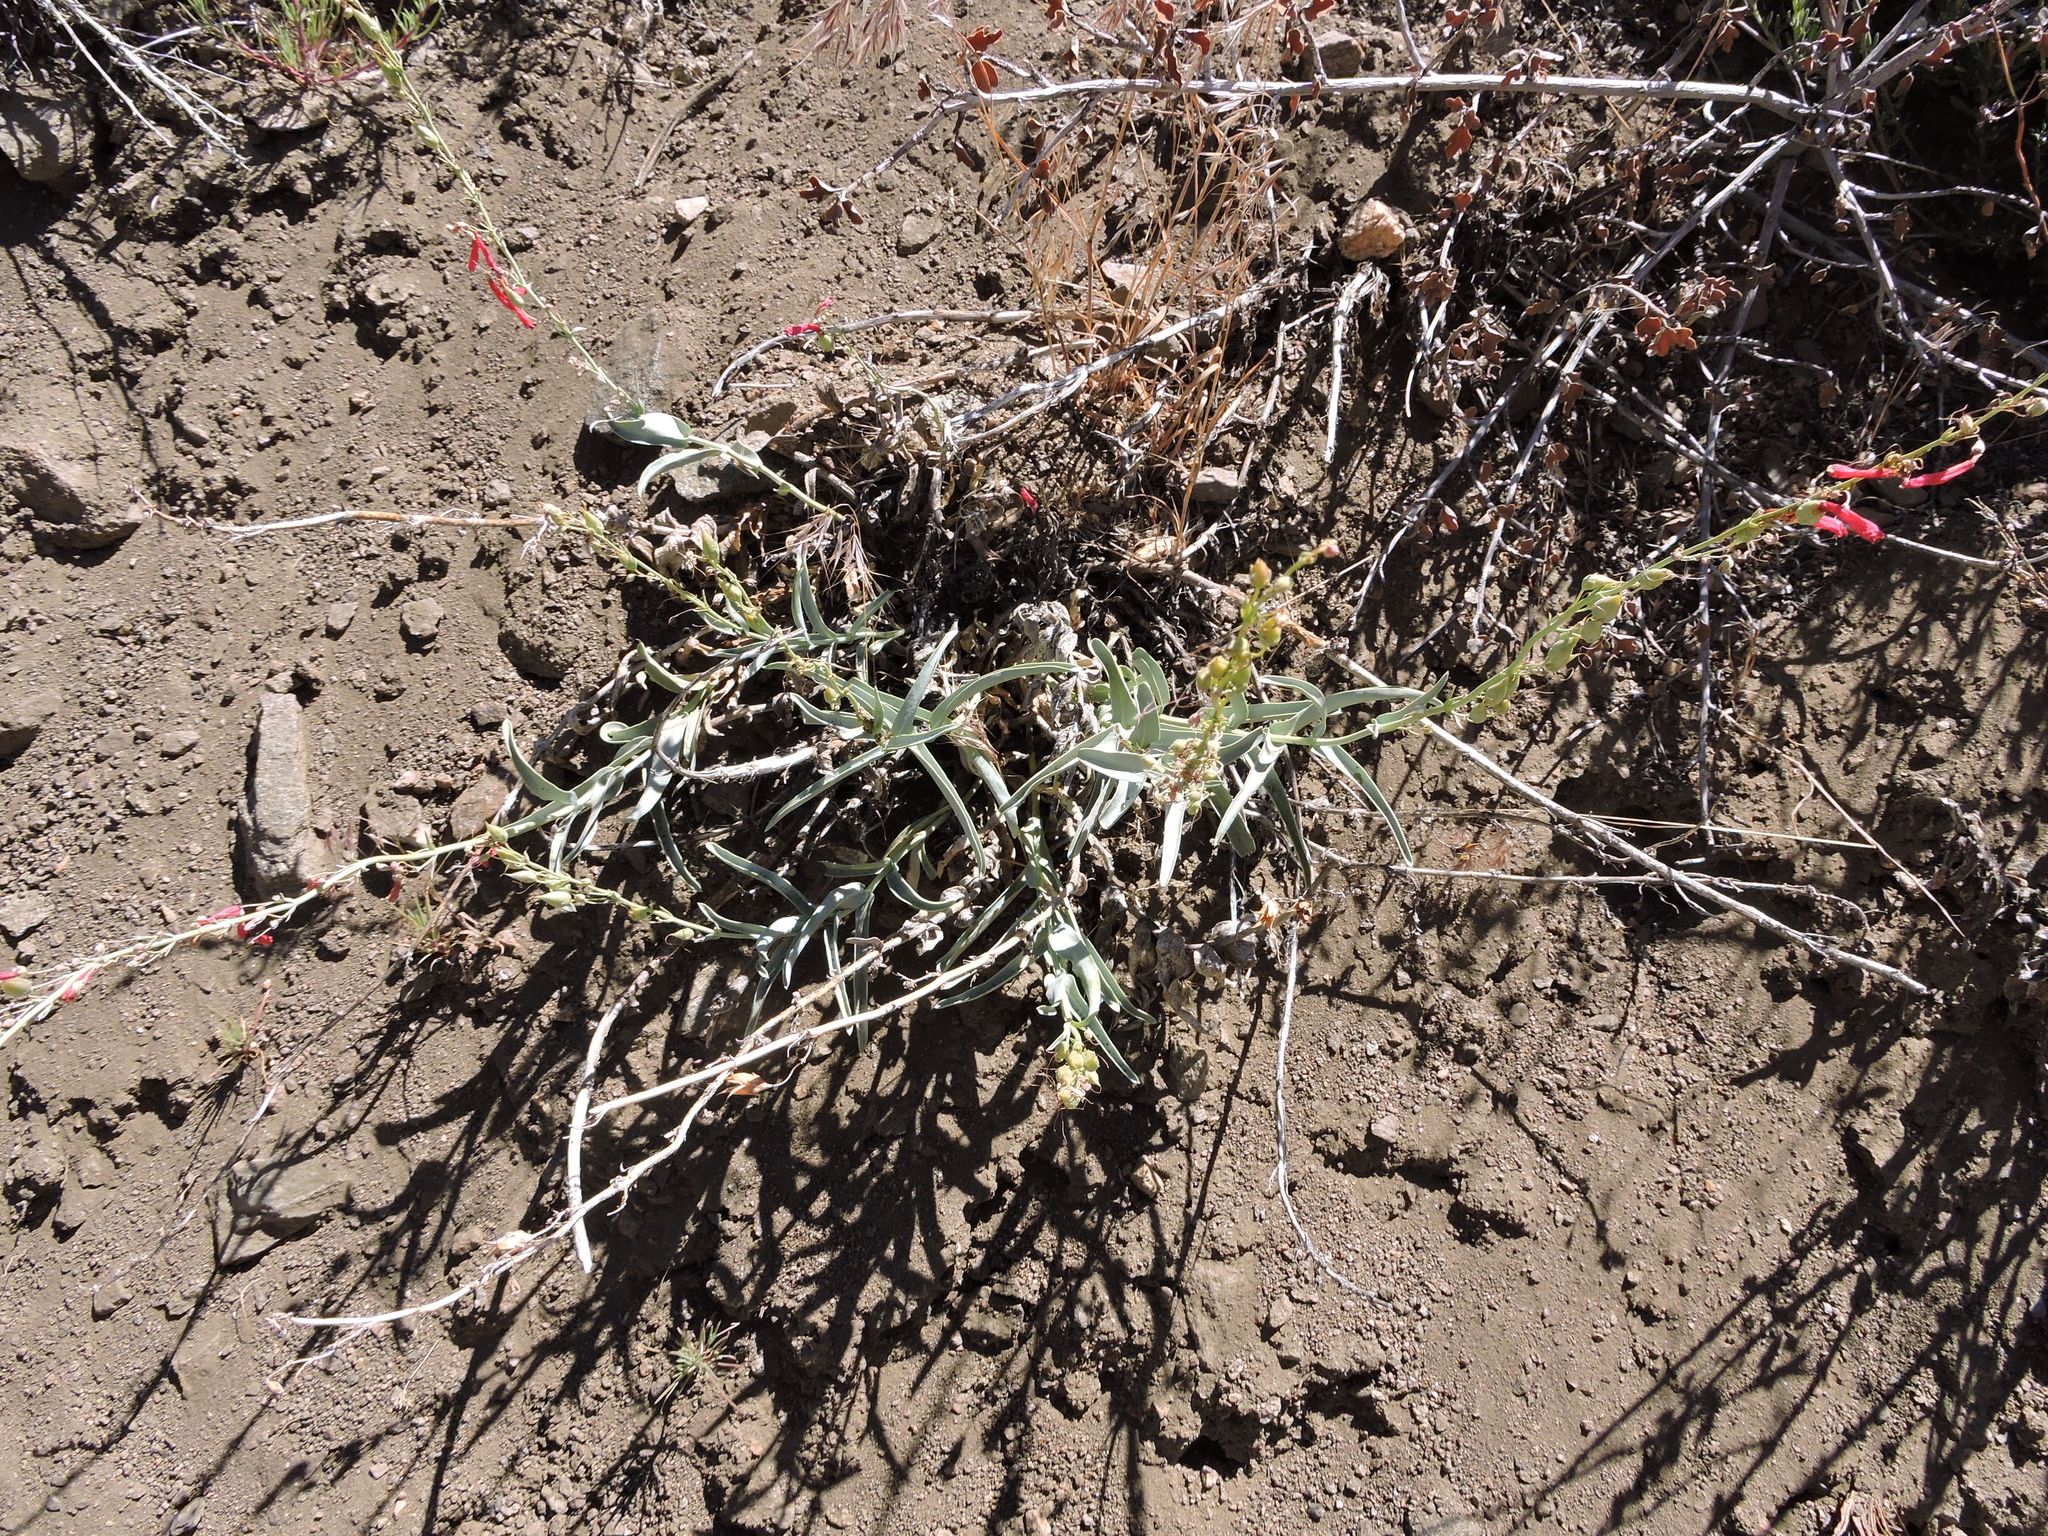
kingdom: Plantae
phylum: Tracheophyta
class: Magnoliopsida
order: Lamiales
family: Plantaginaceae
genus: Penstemon
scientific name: Penstemon centranthifolius
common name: Scarlet bugler
